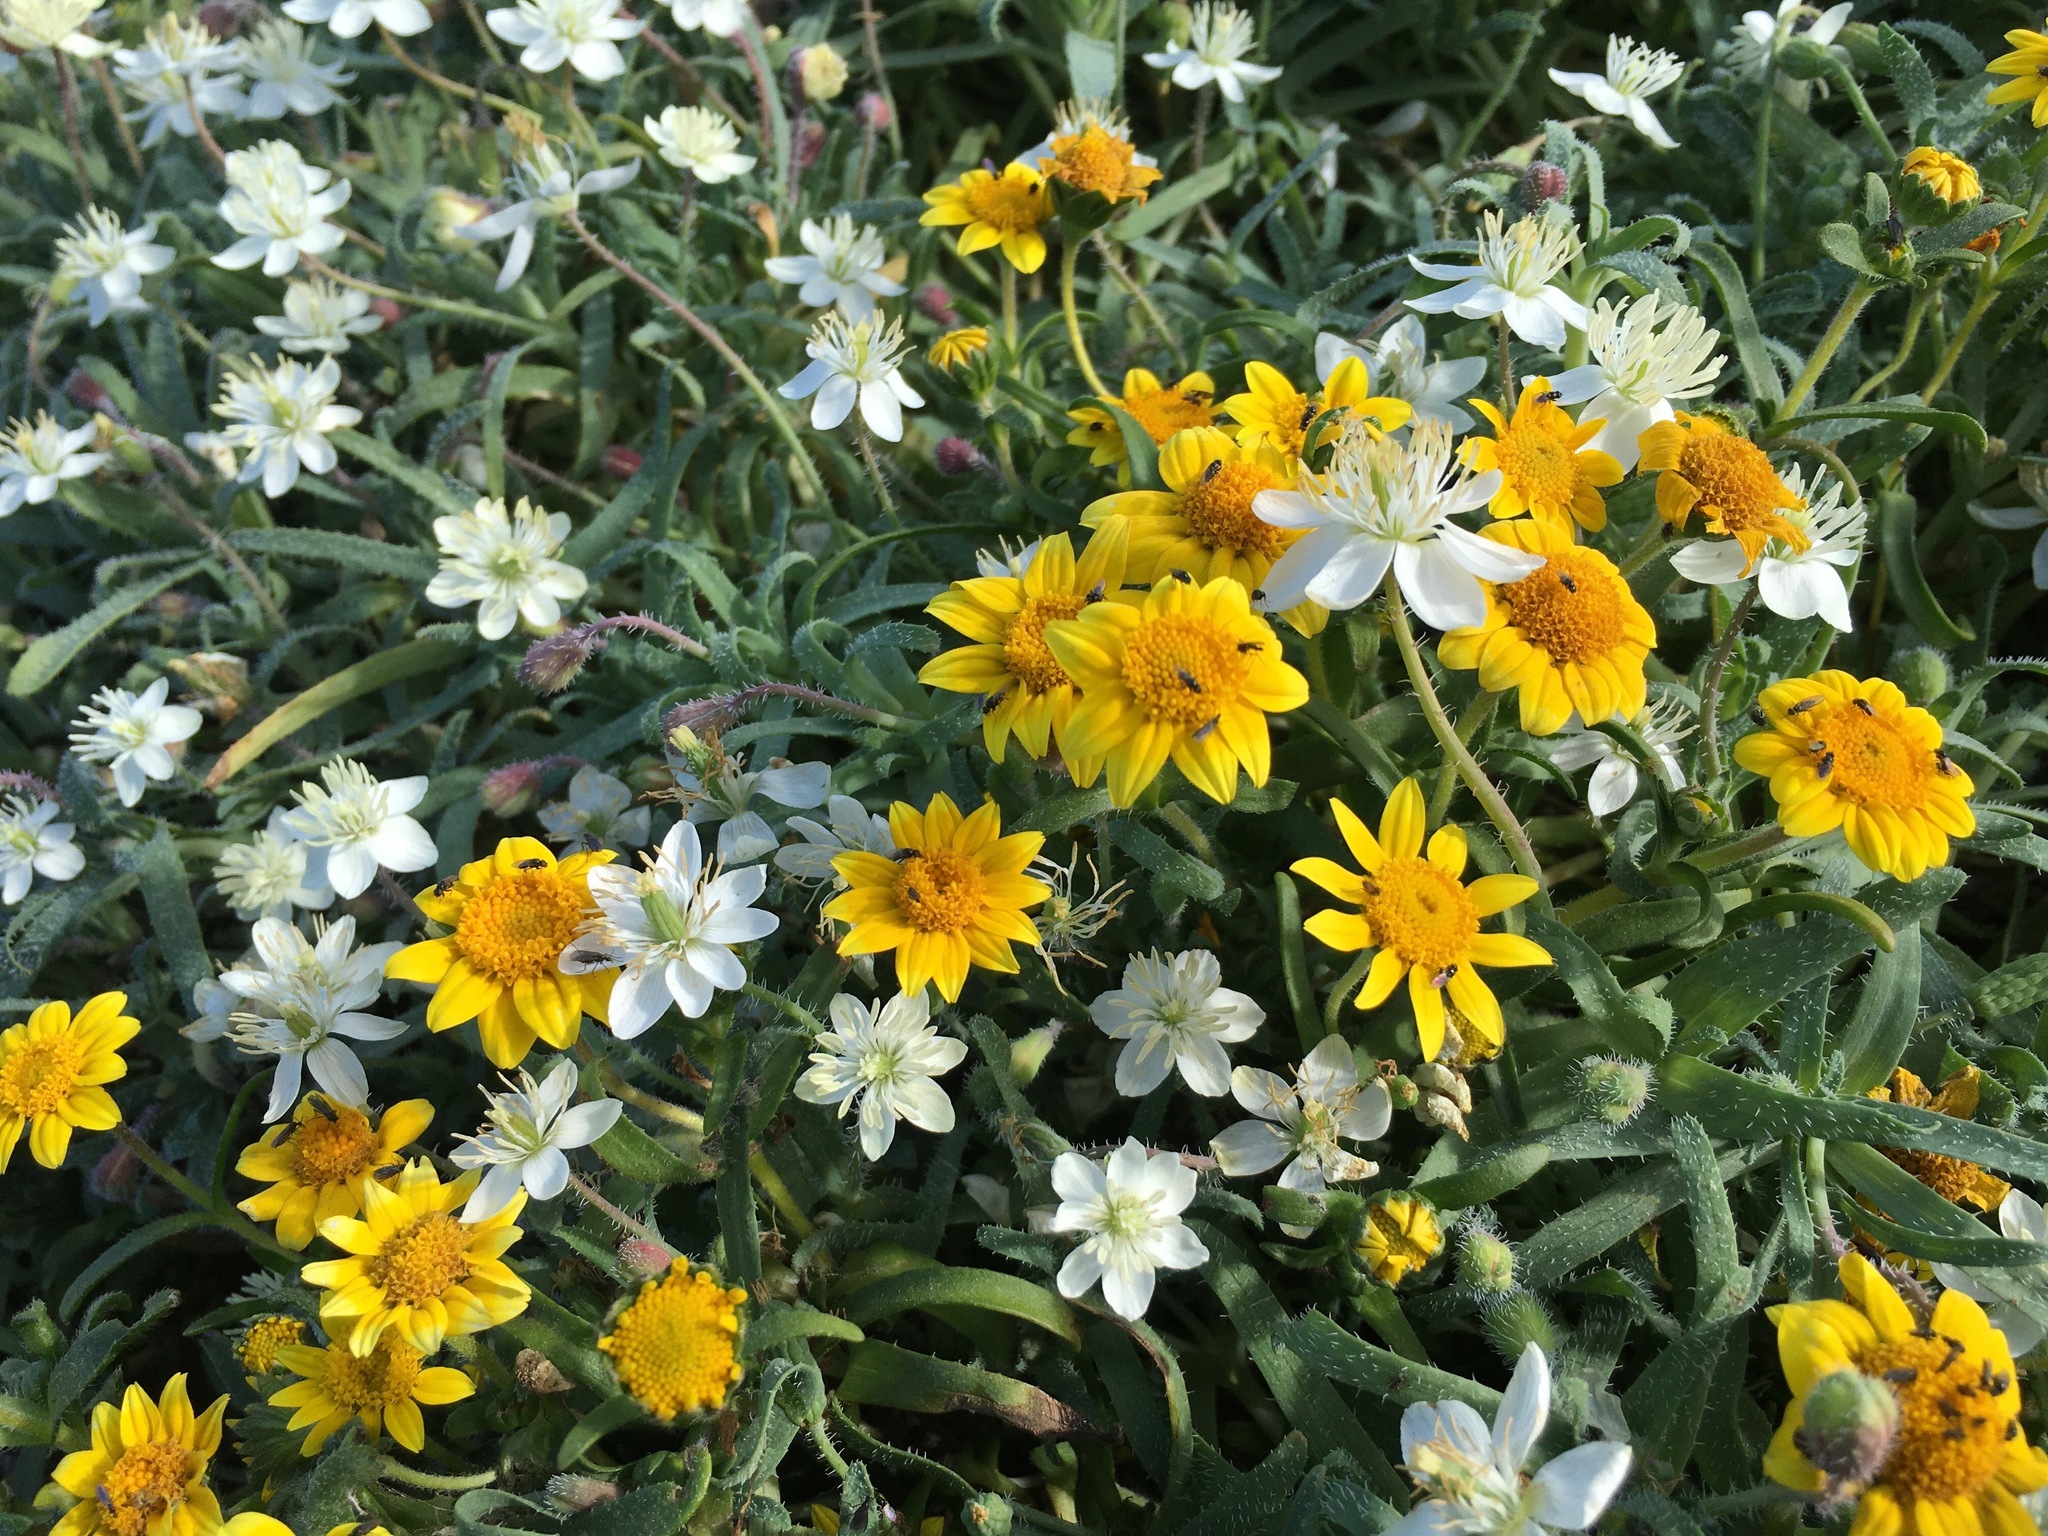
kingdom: Plantae
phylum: Tracheophyta
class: Magnoliopsida
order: Ranunculales
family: Papaveraceae
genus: Platystemon
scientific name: Platystemon californicus
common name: Cream-cups
